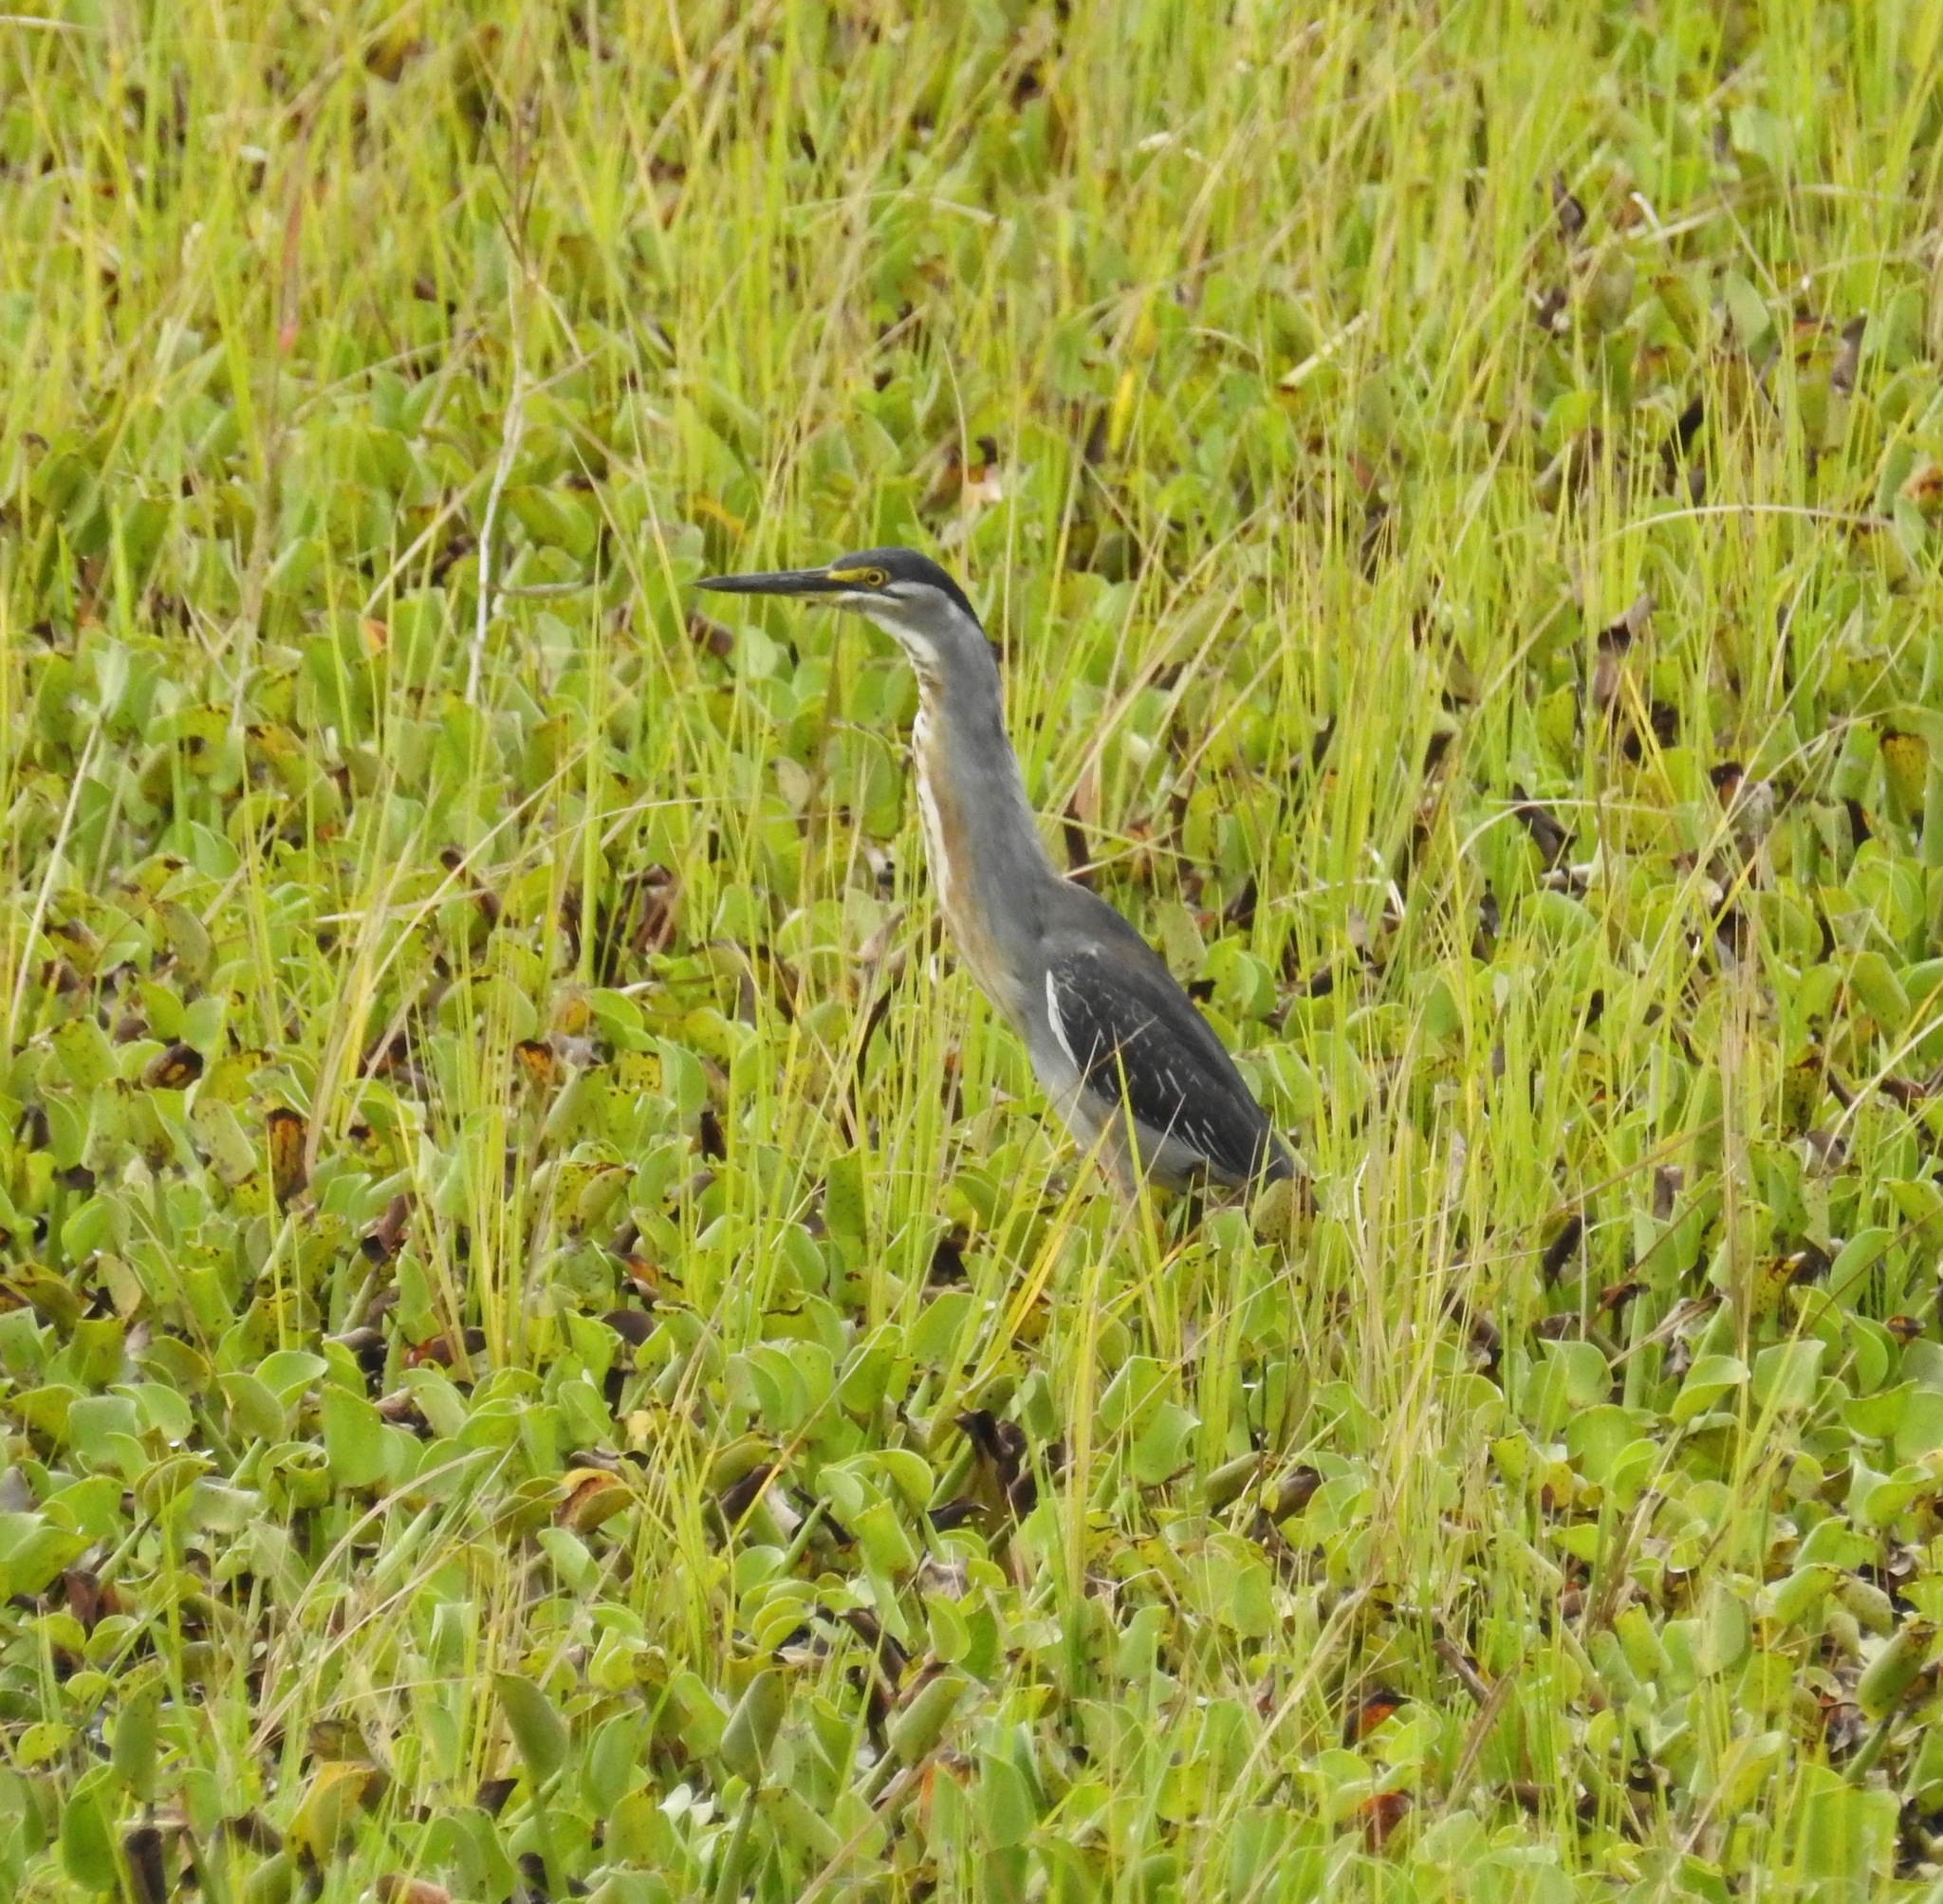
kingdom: Animalia
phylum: Chordata
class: Aves
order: Pelecaniformes
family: Ardeidae
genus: Butorides
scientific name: Butorides striata
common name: Striated heron
